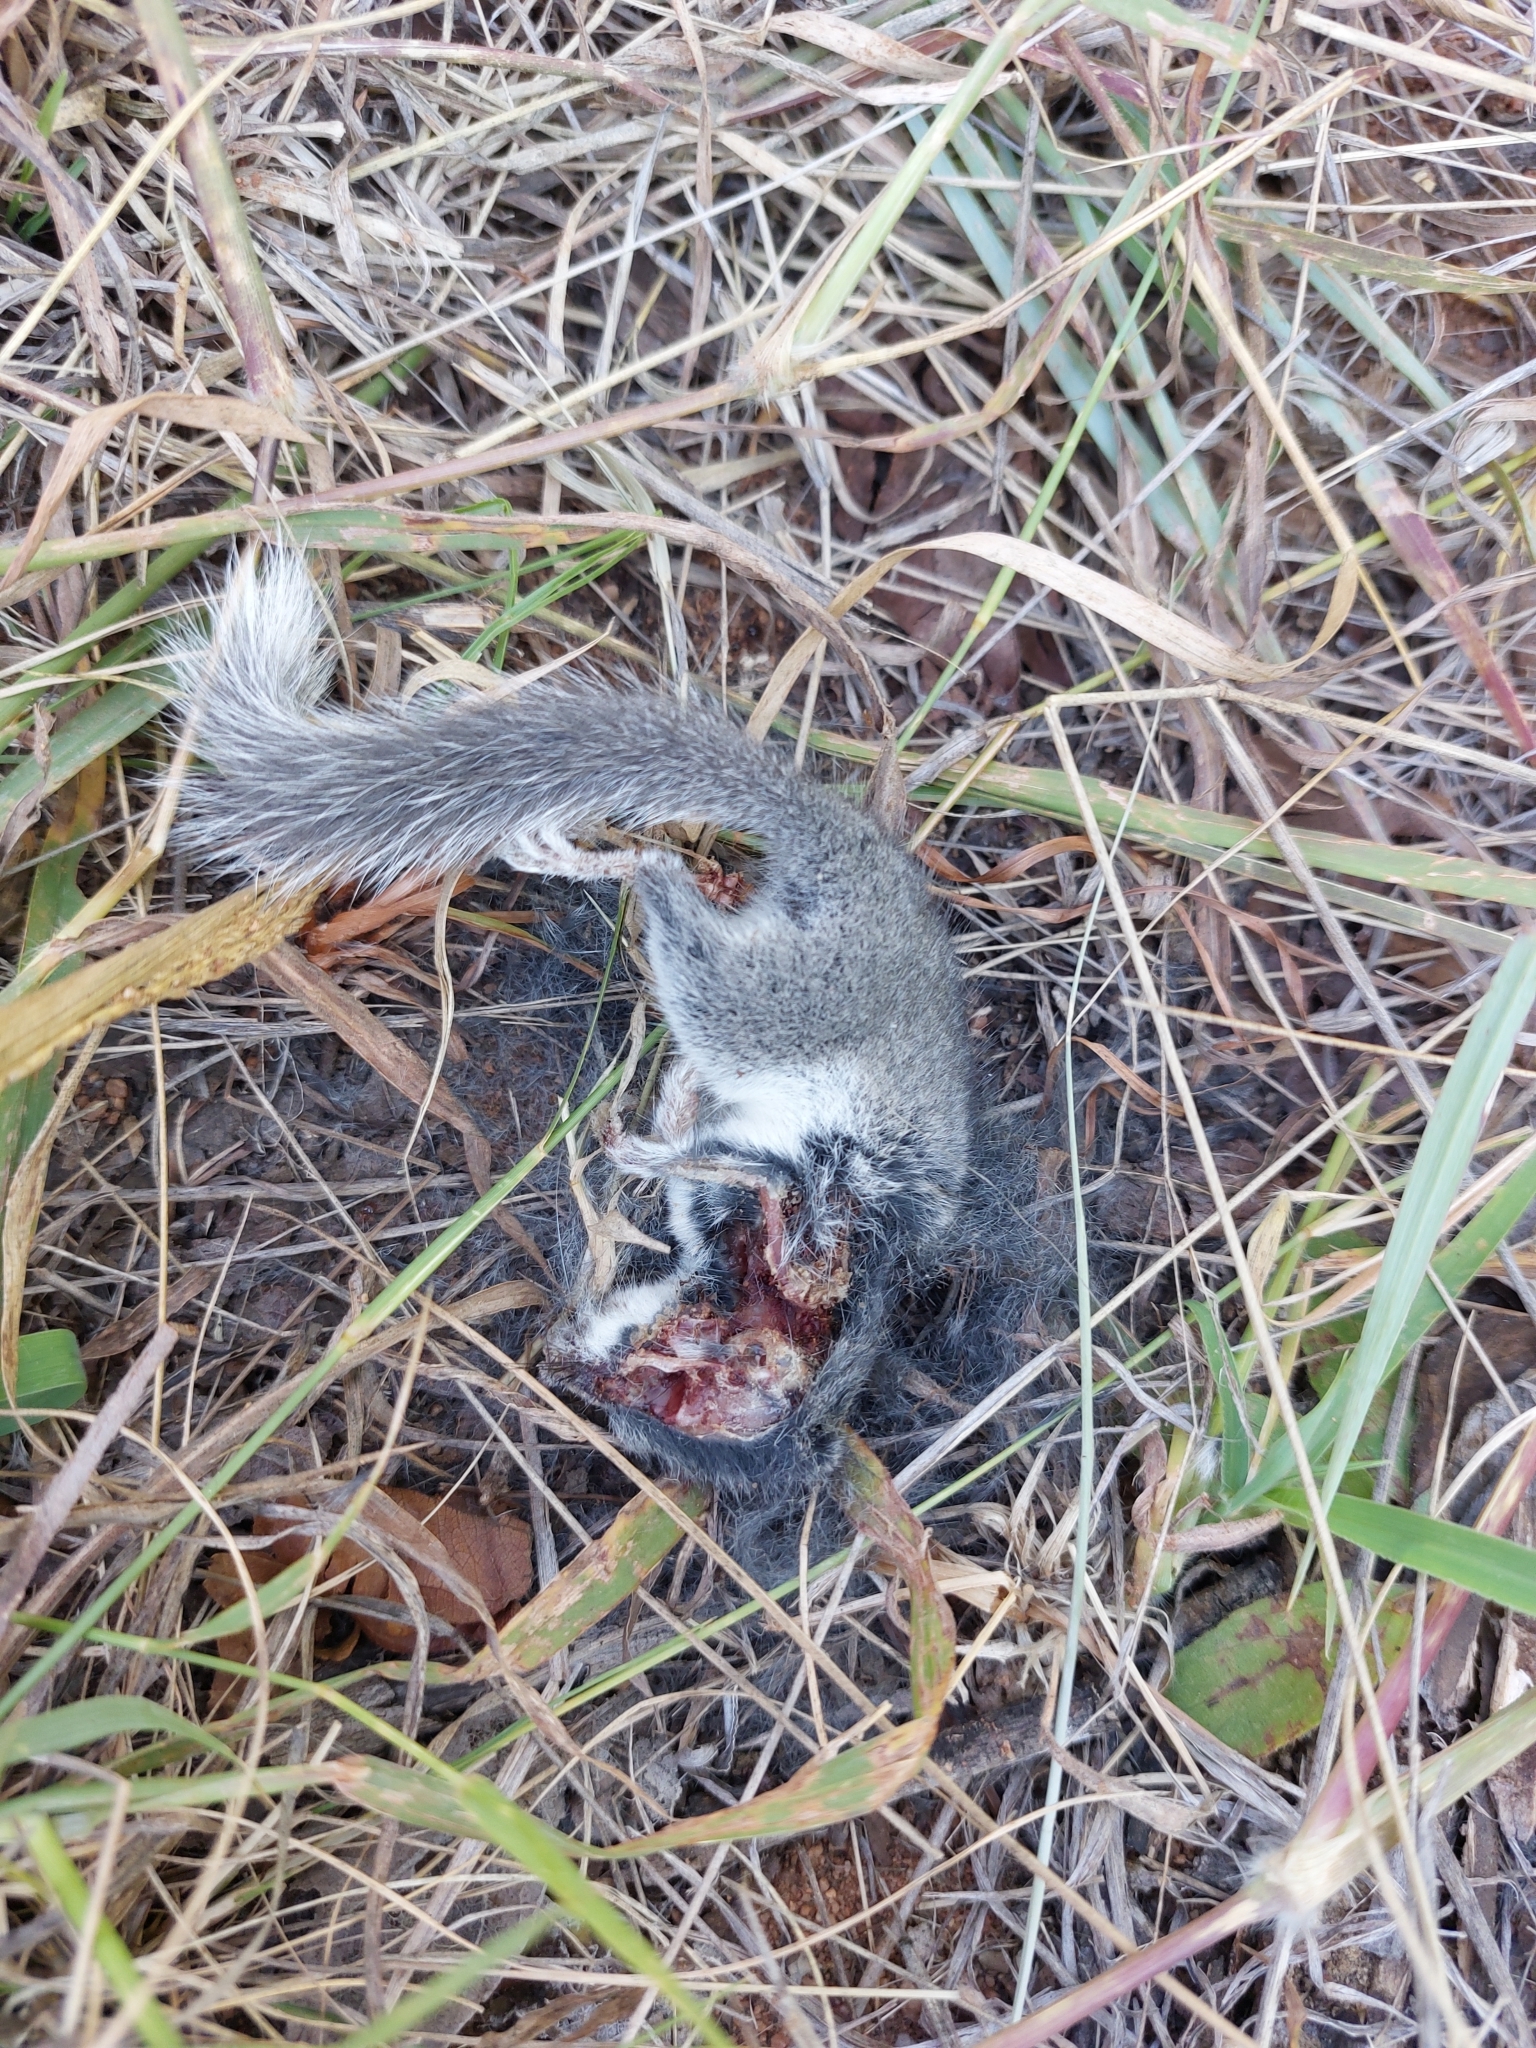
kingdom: Animalia
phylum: Chordata
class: Mammalia
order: Rodentia
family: Gliridae
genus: Graphiurus
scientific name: Graphiurus murinus
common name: Forest african dormouse
